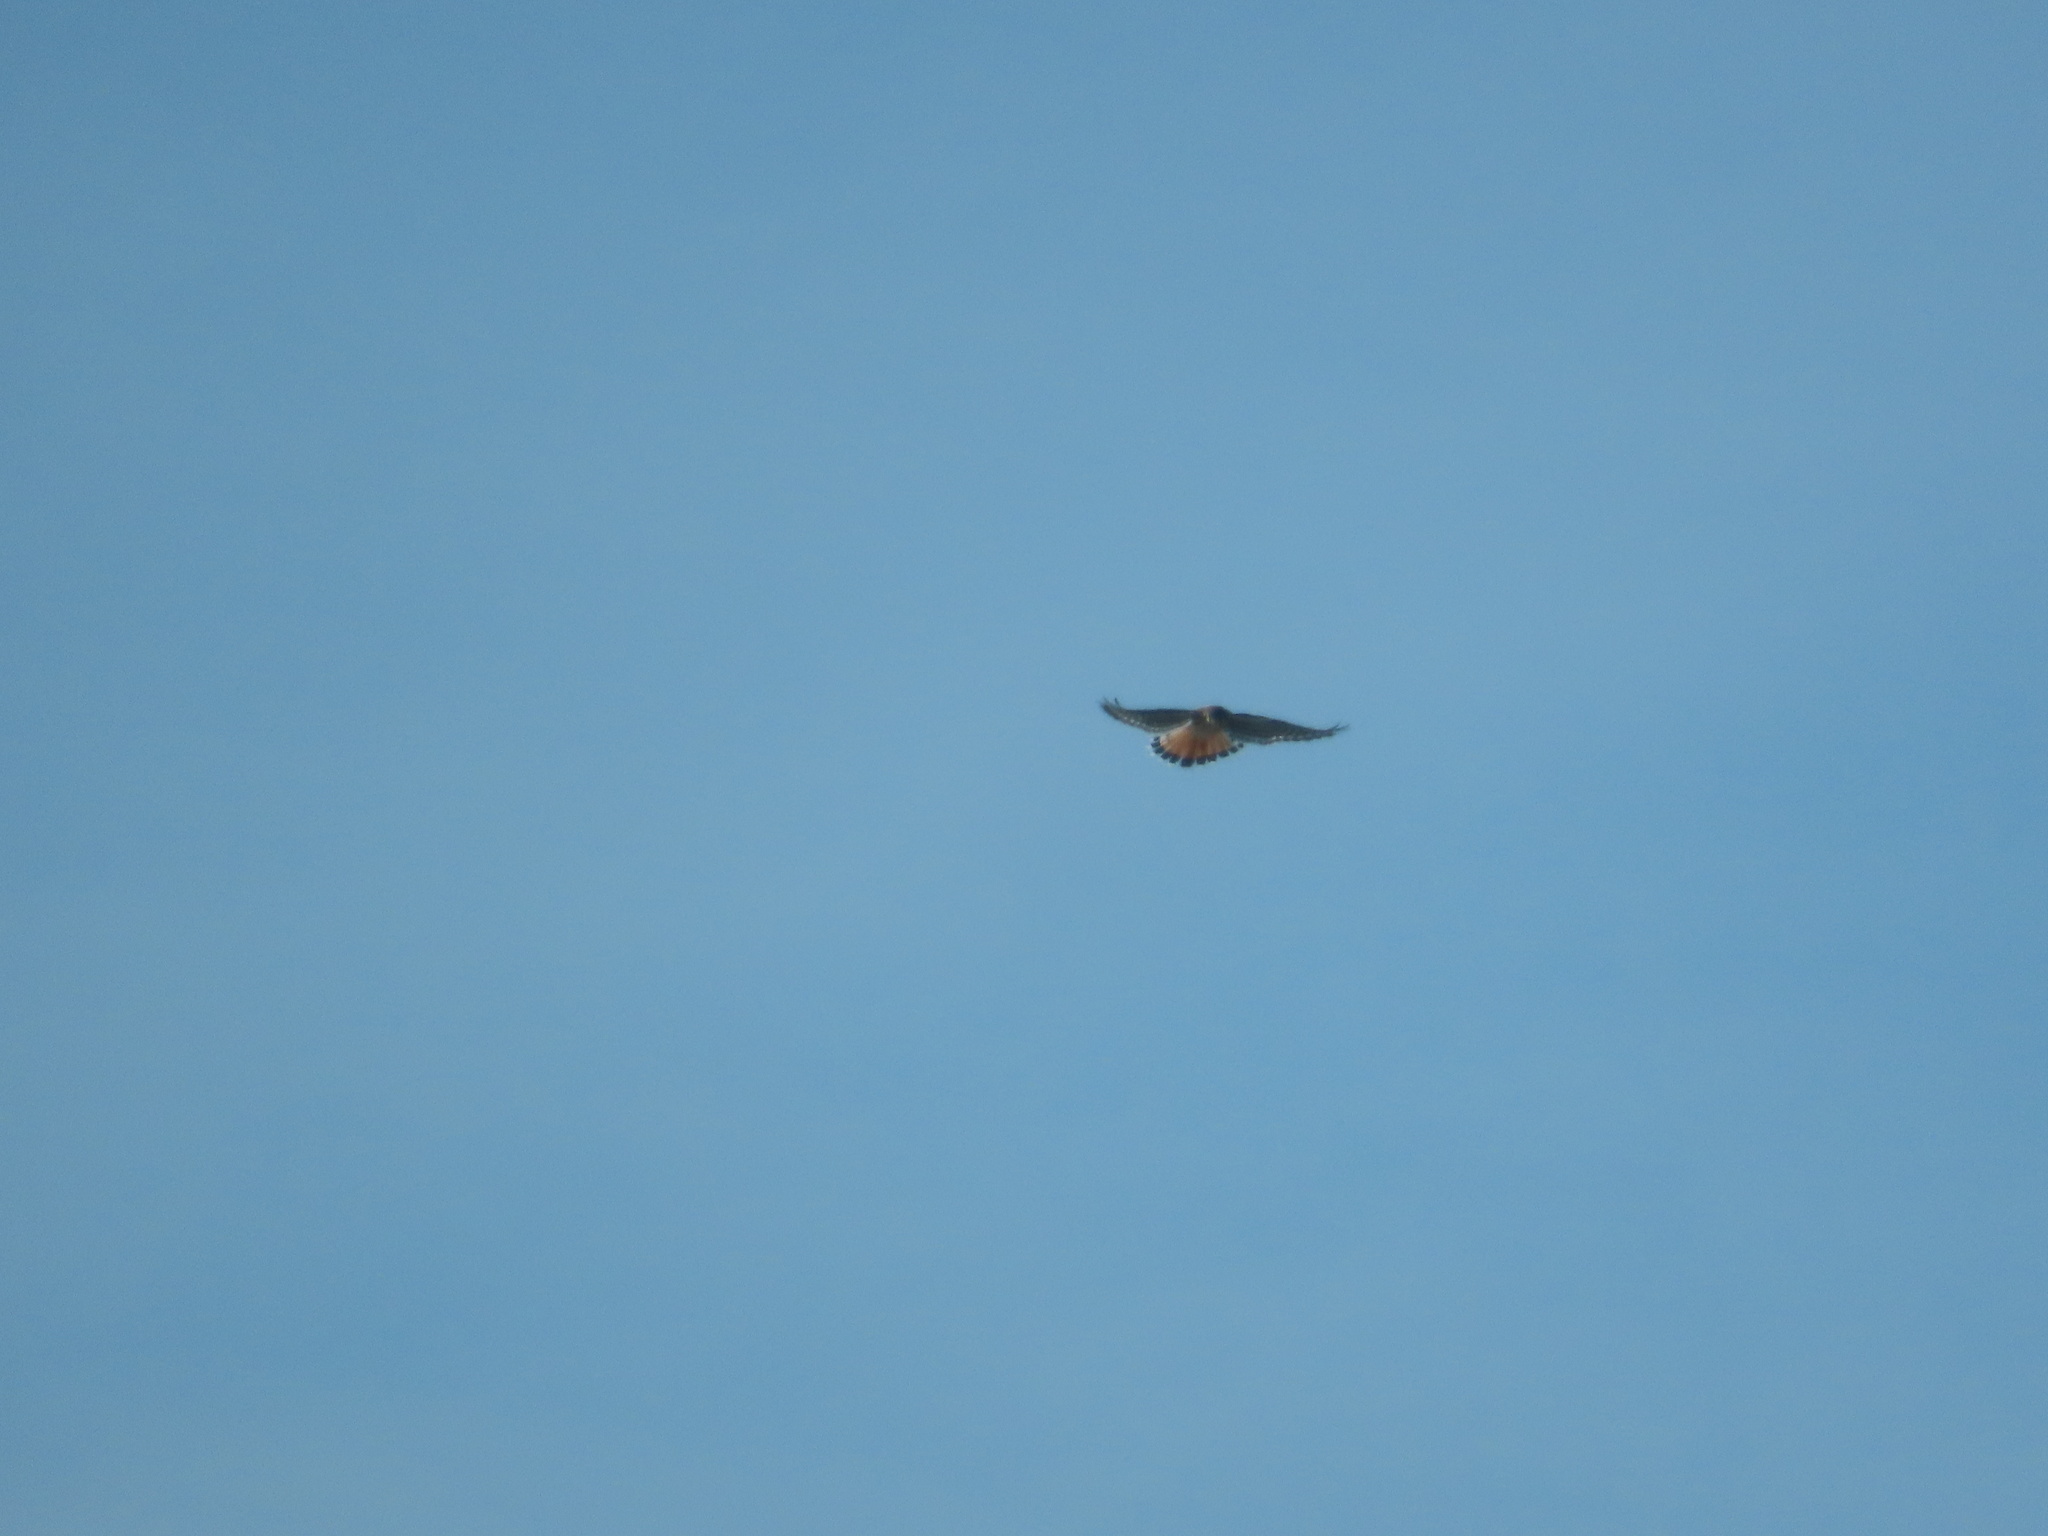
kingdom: Animalia
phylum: Chordata
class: Aves
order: Falconiformes
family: Falconidae
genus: Falco
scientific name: Falco sparverius
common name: American kestrel
